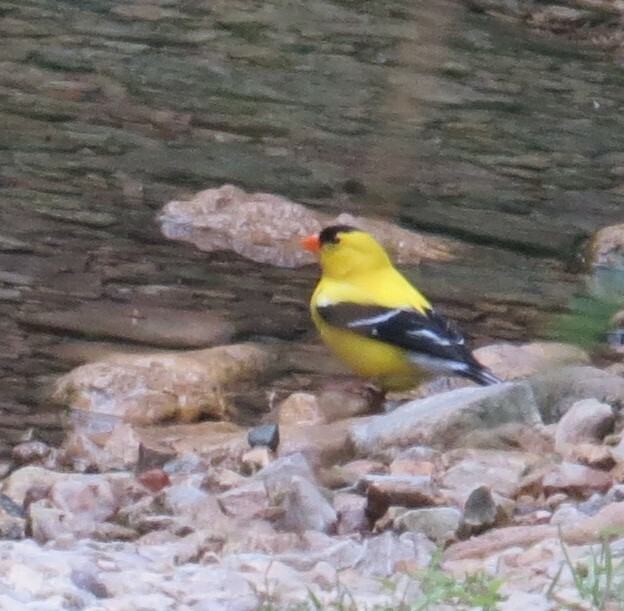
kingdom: Animalia
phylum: Chordata
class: Aves
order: Passeriformes
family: Fringillidae
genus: Spinus
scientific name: Spinus tristis
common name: American goldfinch
